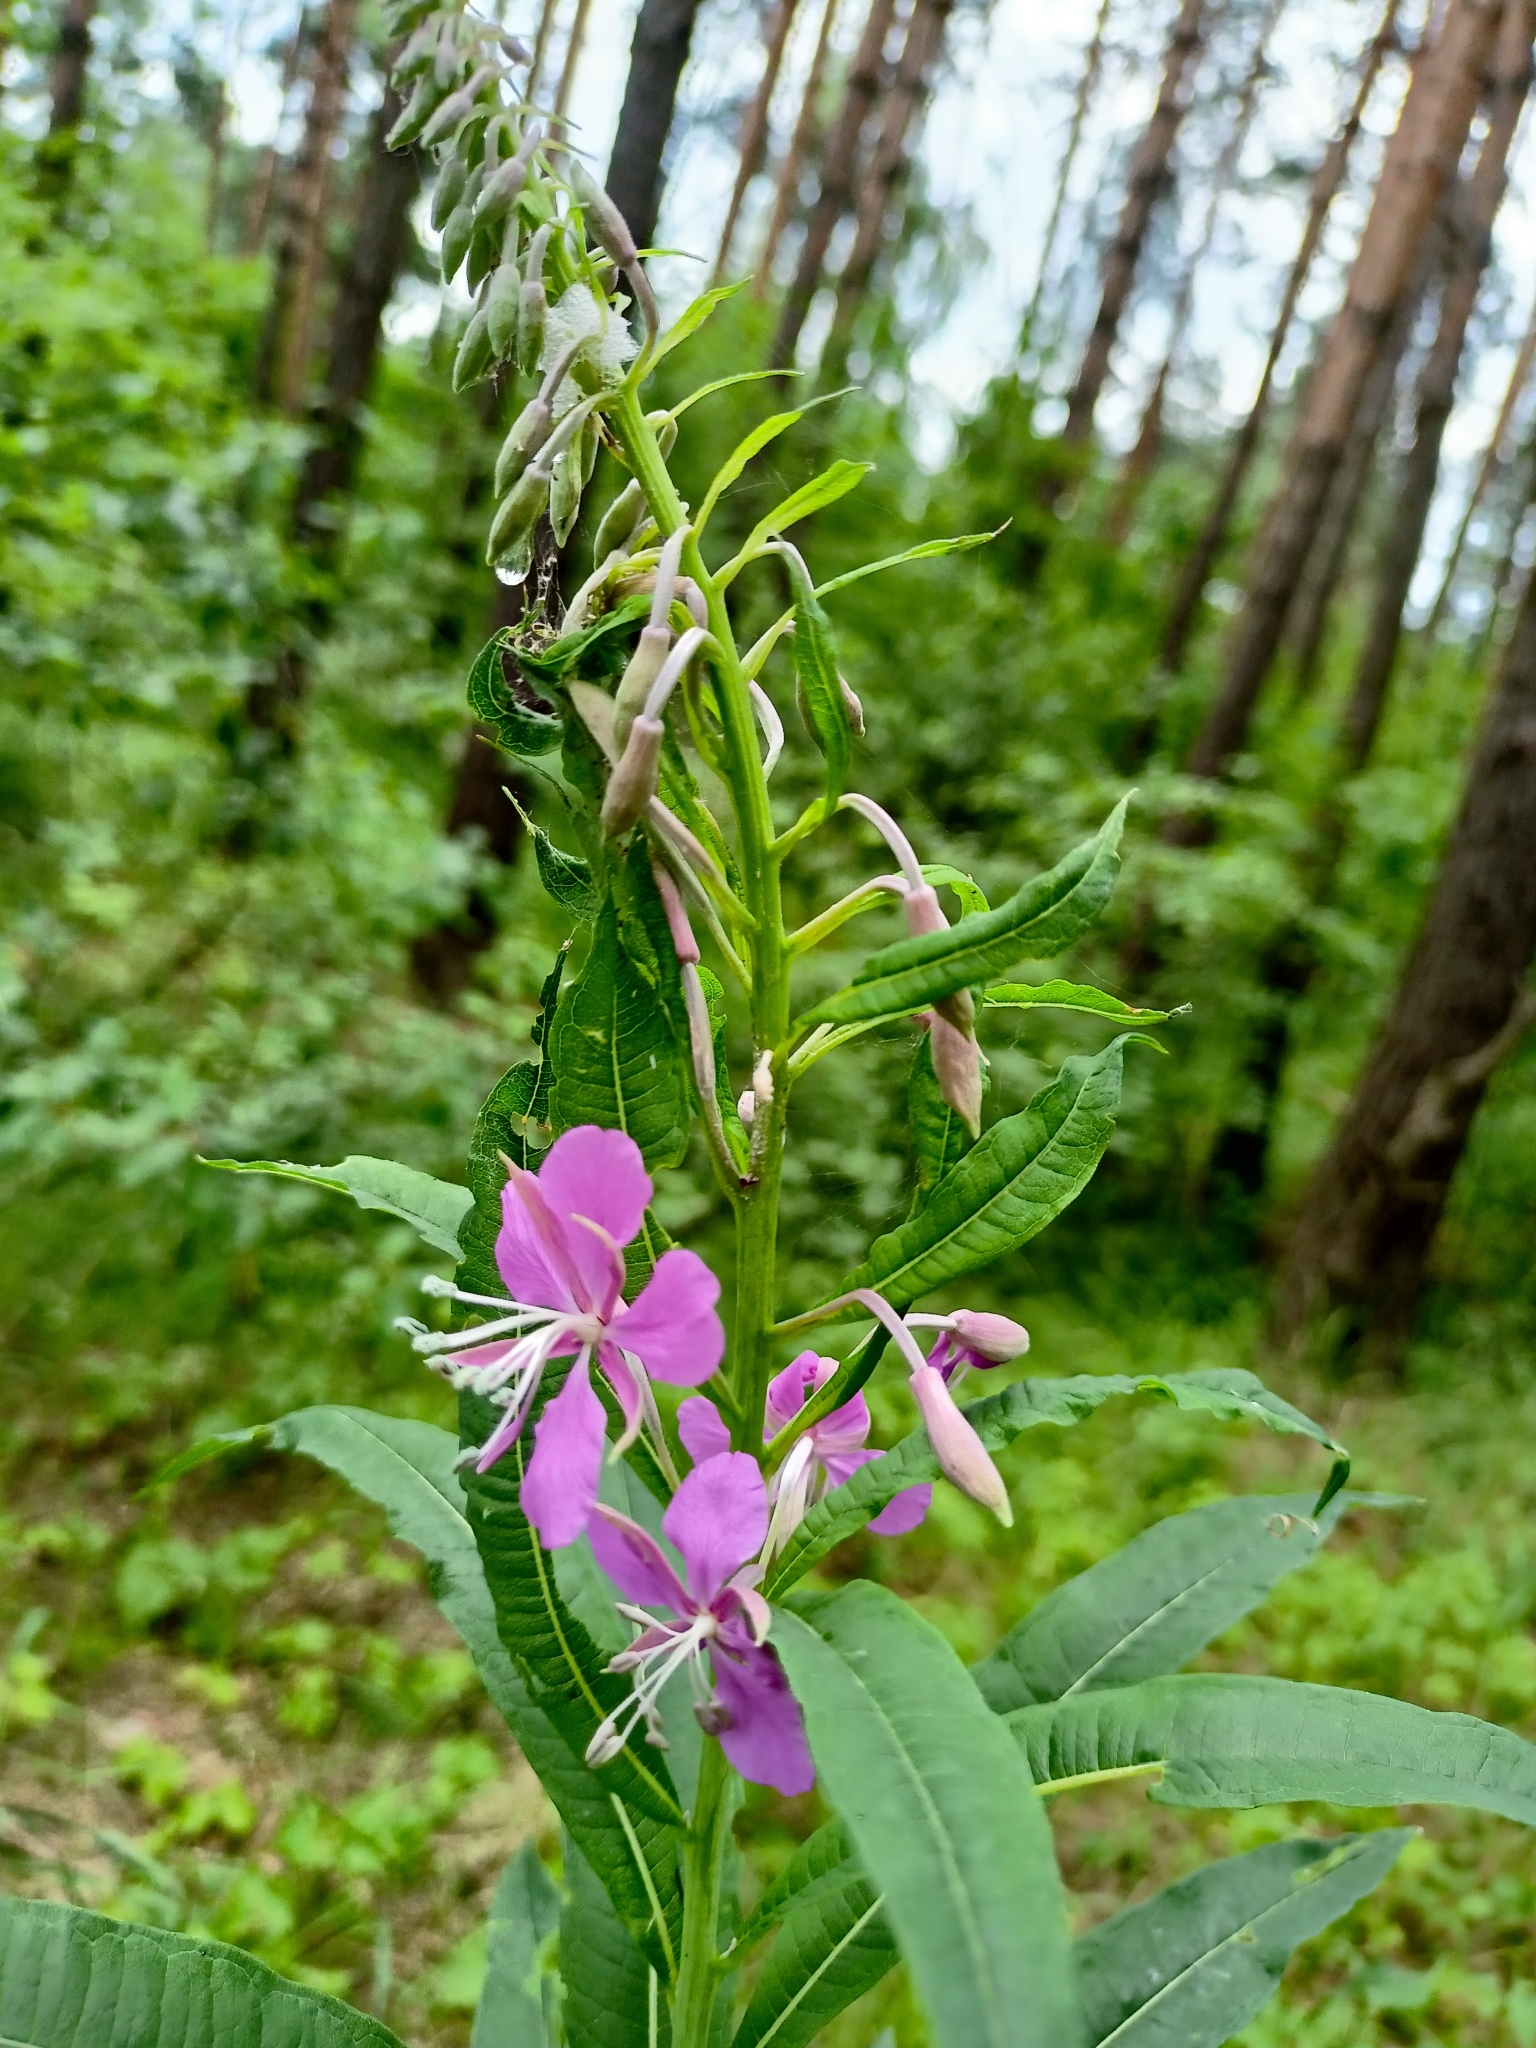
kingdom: Plantae
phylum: Tracheophyta
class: Magnoliopsida
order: Myrtales
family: Onagraceae
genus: Chamaenerion
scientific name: Chamaenerion angustifolium
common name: Fireweed
